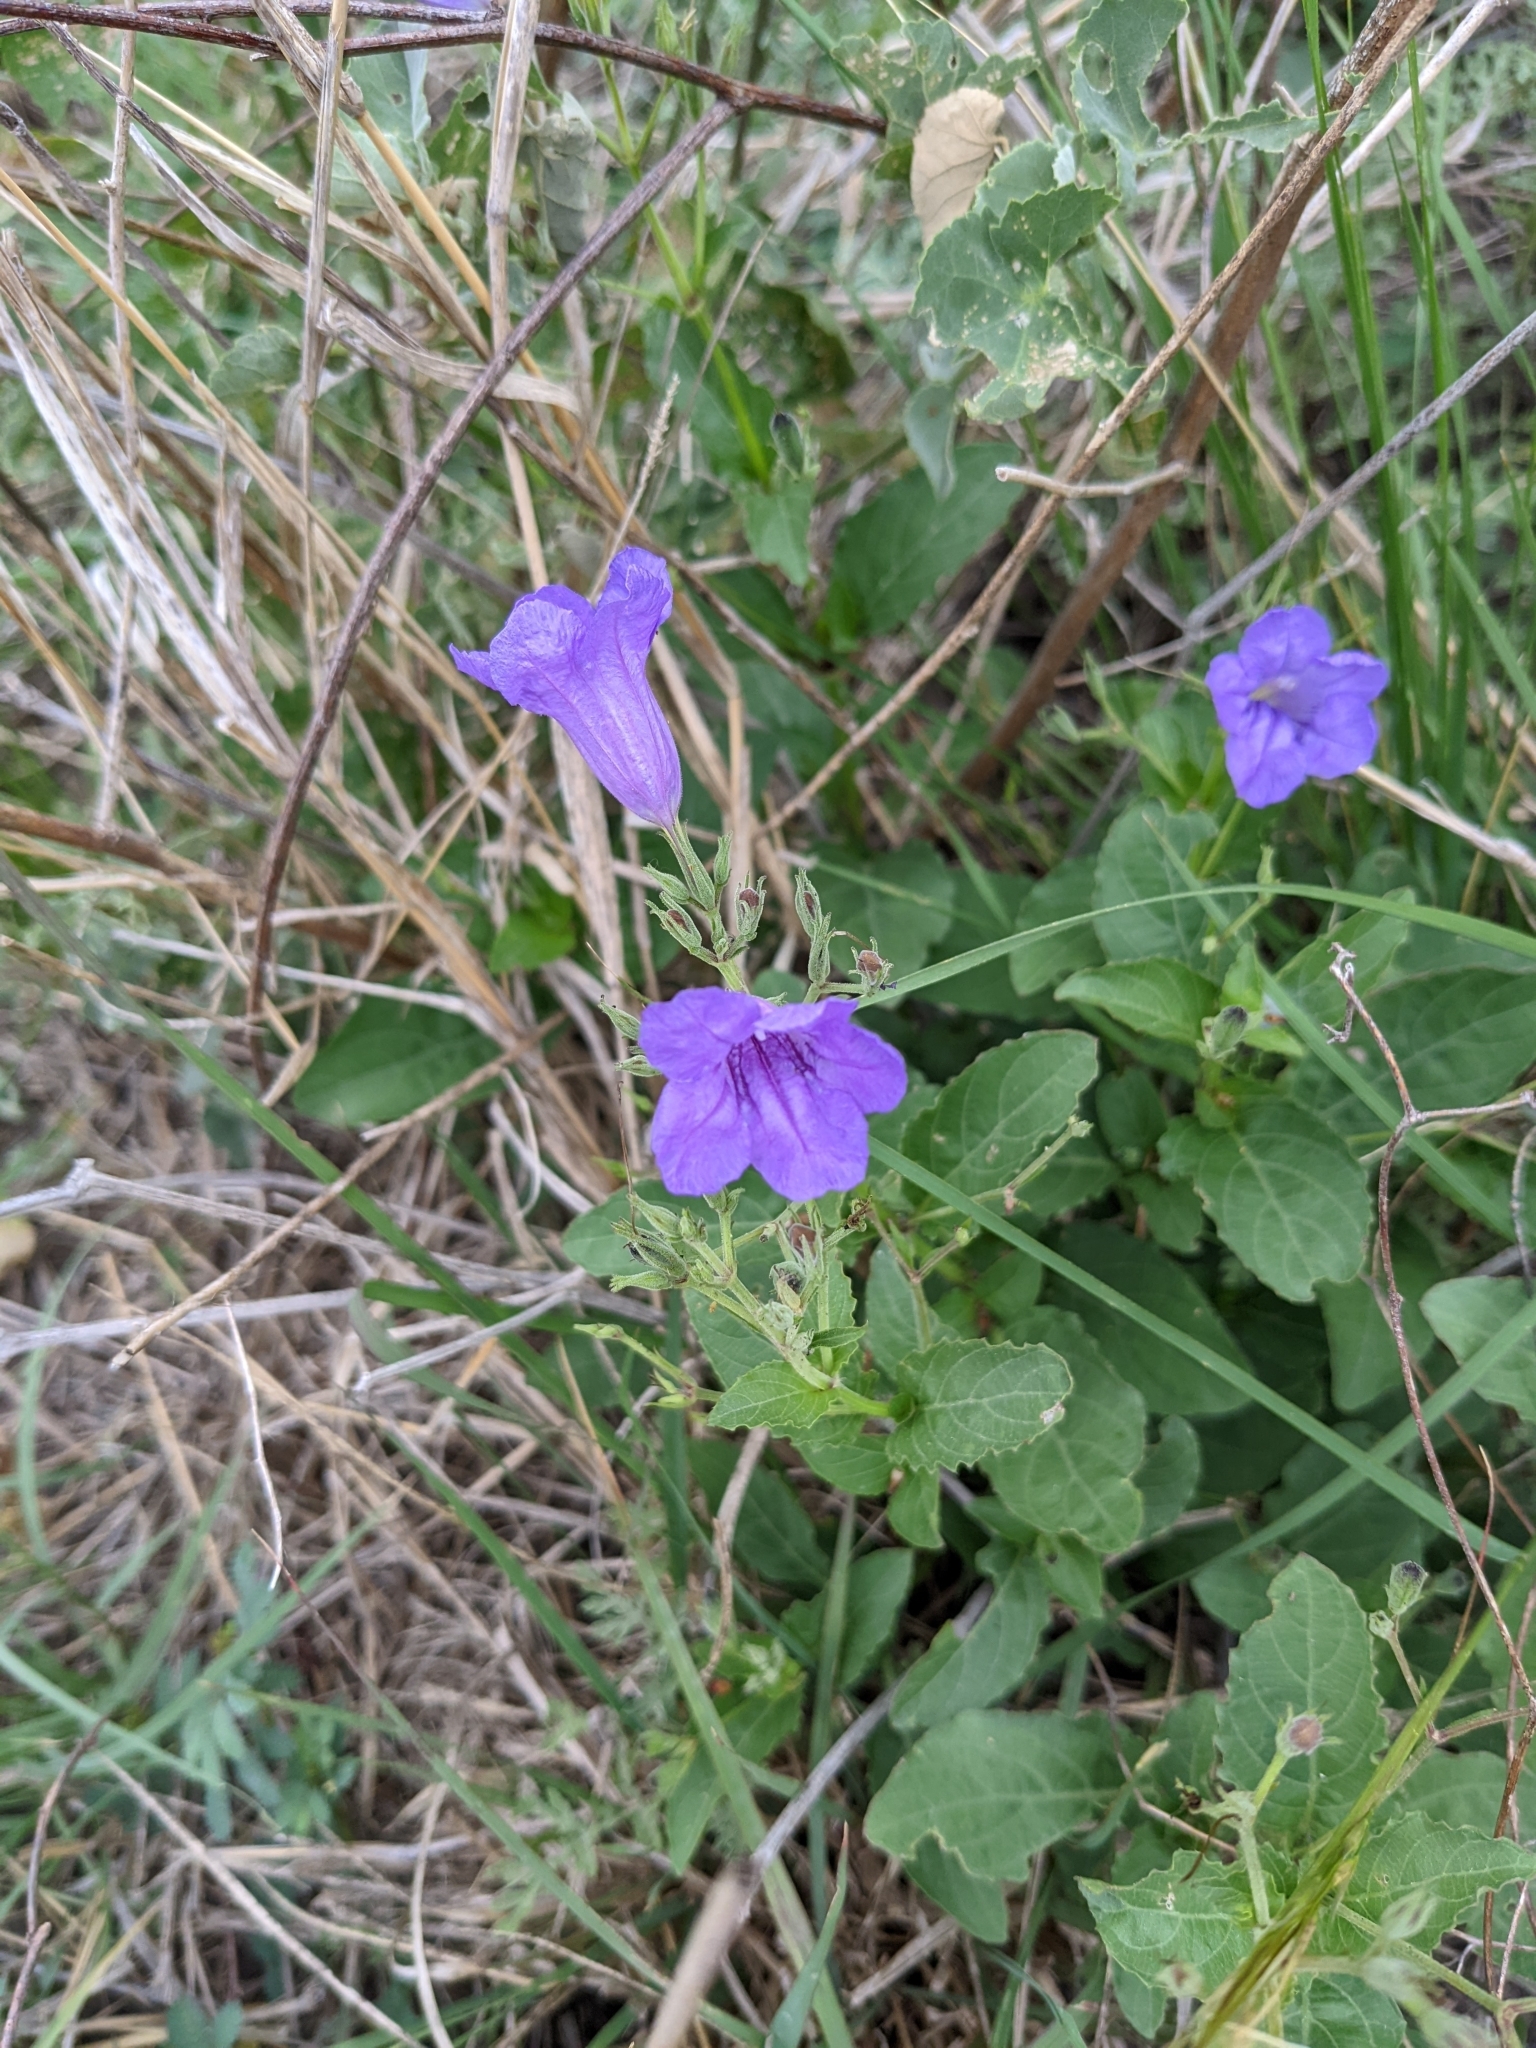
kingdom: Plantae
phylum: Tracheophyta
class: Magnoliopsida
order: Lamiales
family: Acanthaceae
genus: Ruellia
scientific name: Ruellia ciliatiflora
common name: Hairyflower wild petunia
